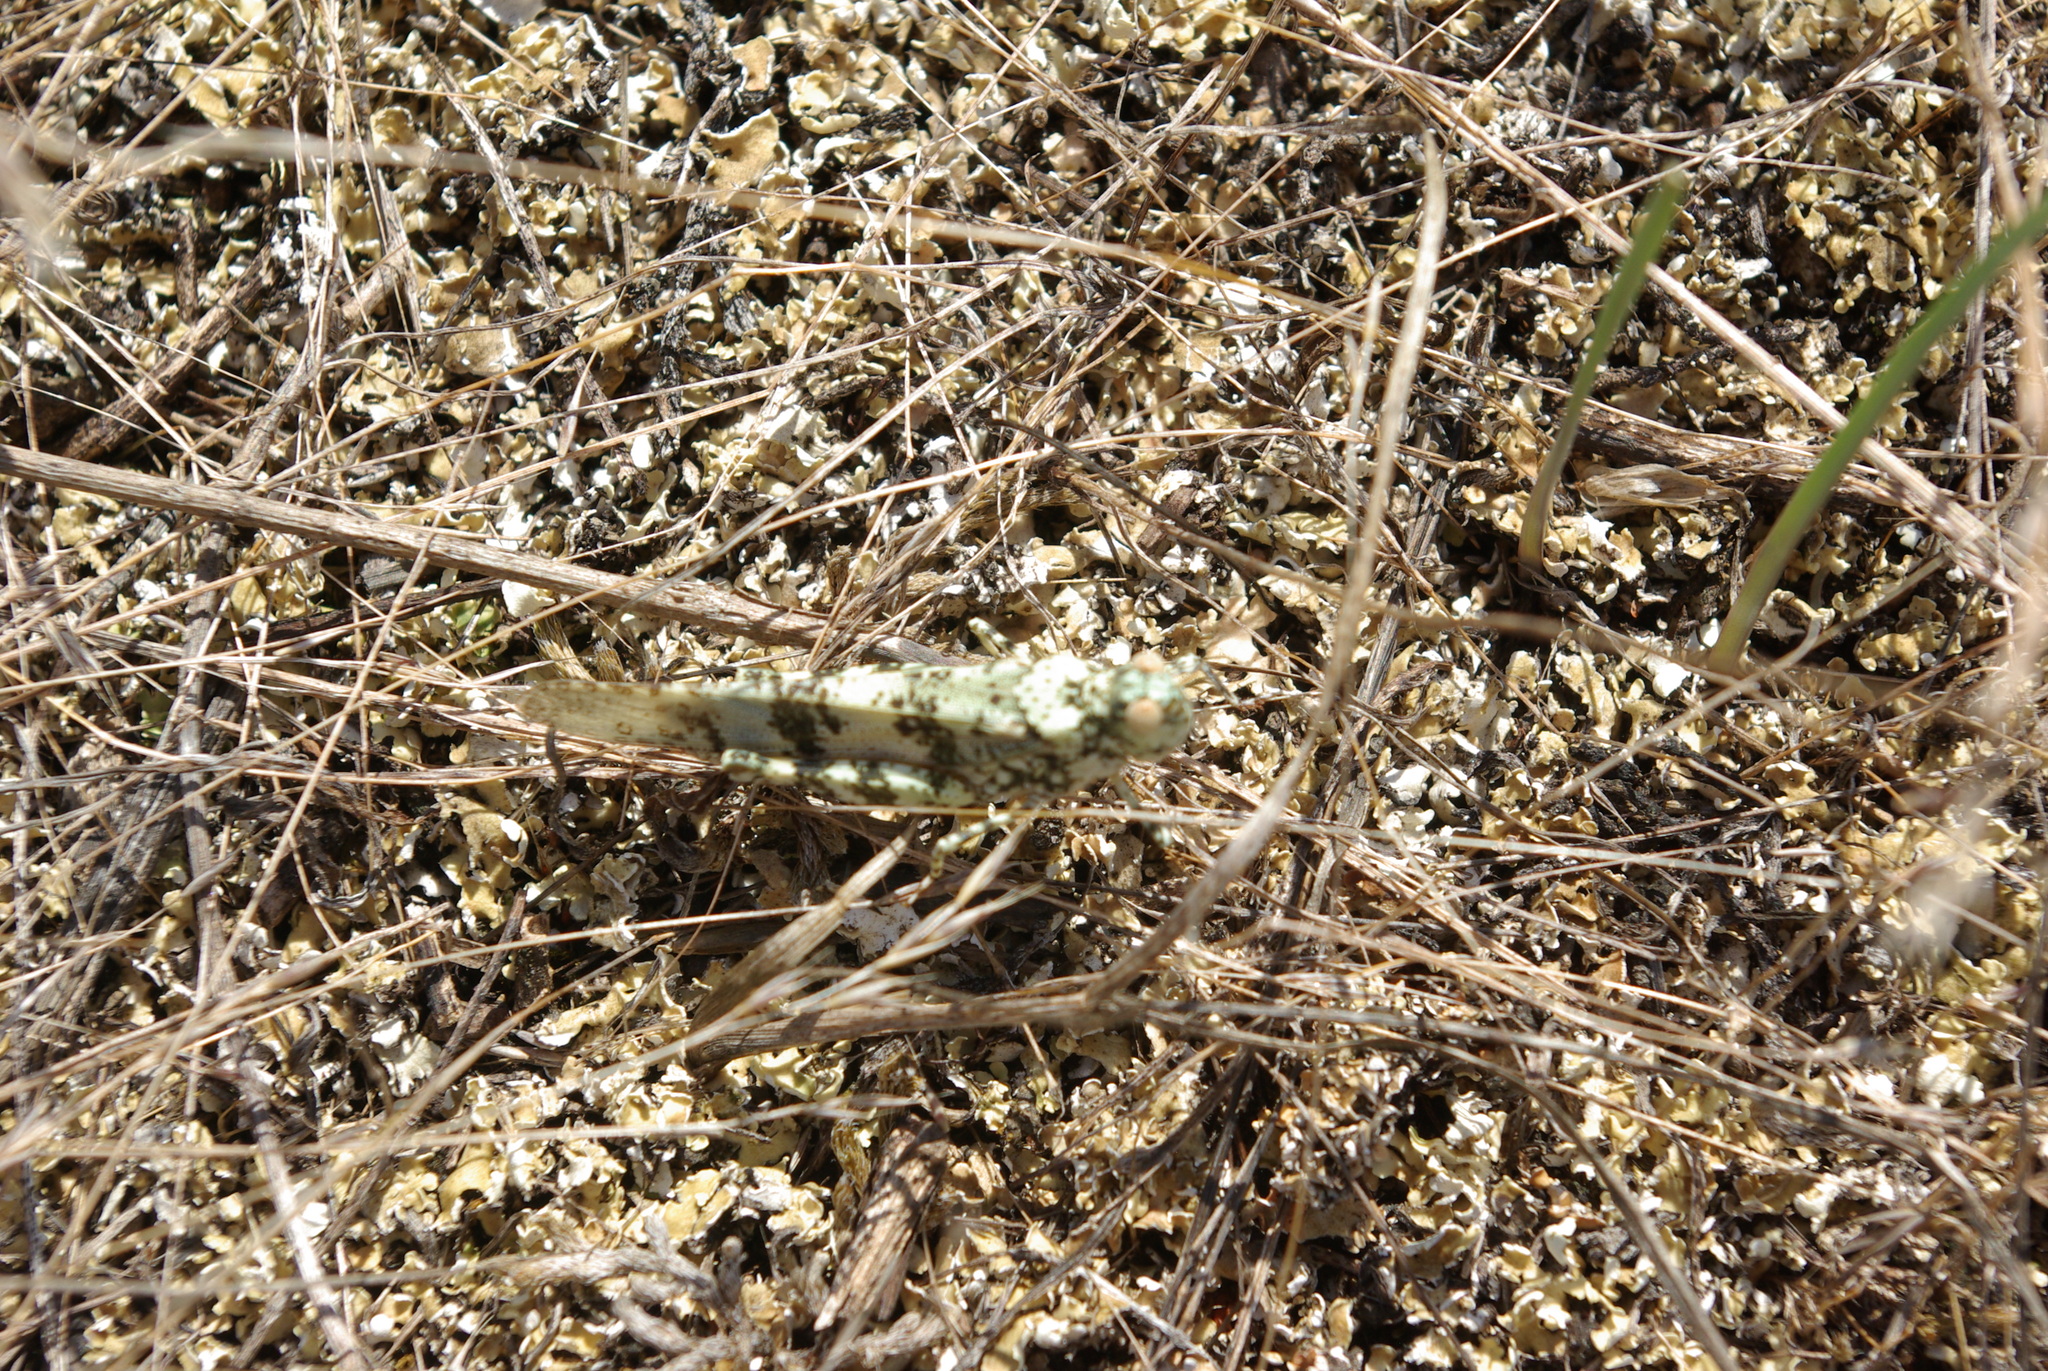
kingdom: Animalia
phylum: Arthropoda
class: Insecta
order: Orthoptera
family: Acrididae
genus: Trimerotropis
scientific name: Trimerotropis saxatilis
